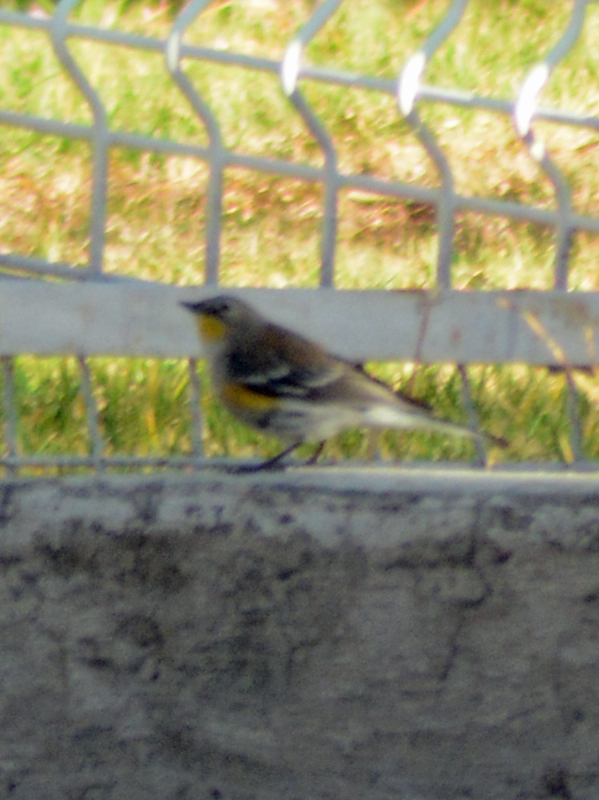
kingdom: Animalia
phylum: Chordata
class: Aves
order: Passeriformes
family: Parulidae
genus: Setophaga
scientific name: Setophaga auduboni
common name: Audubon's warbler
